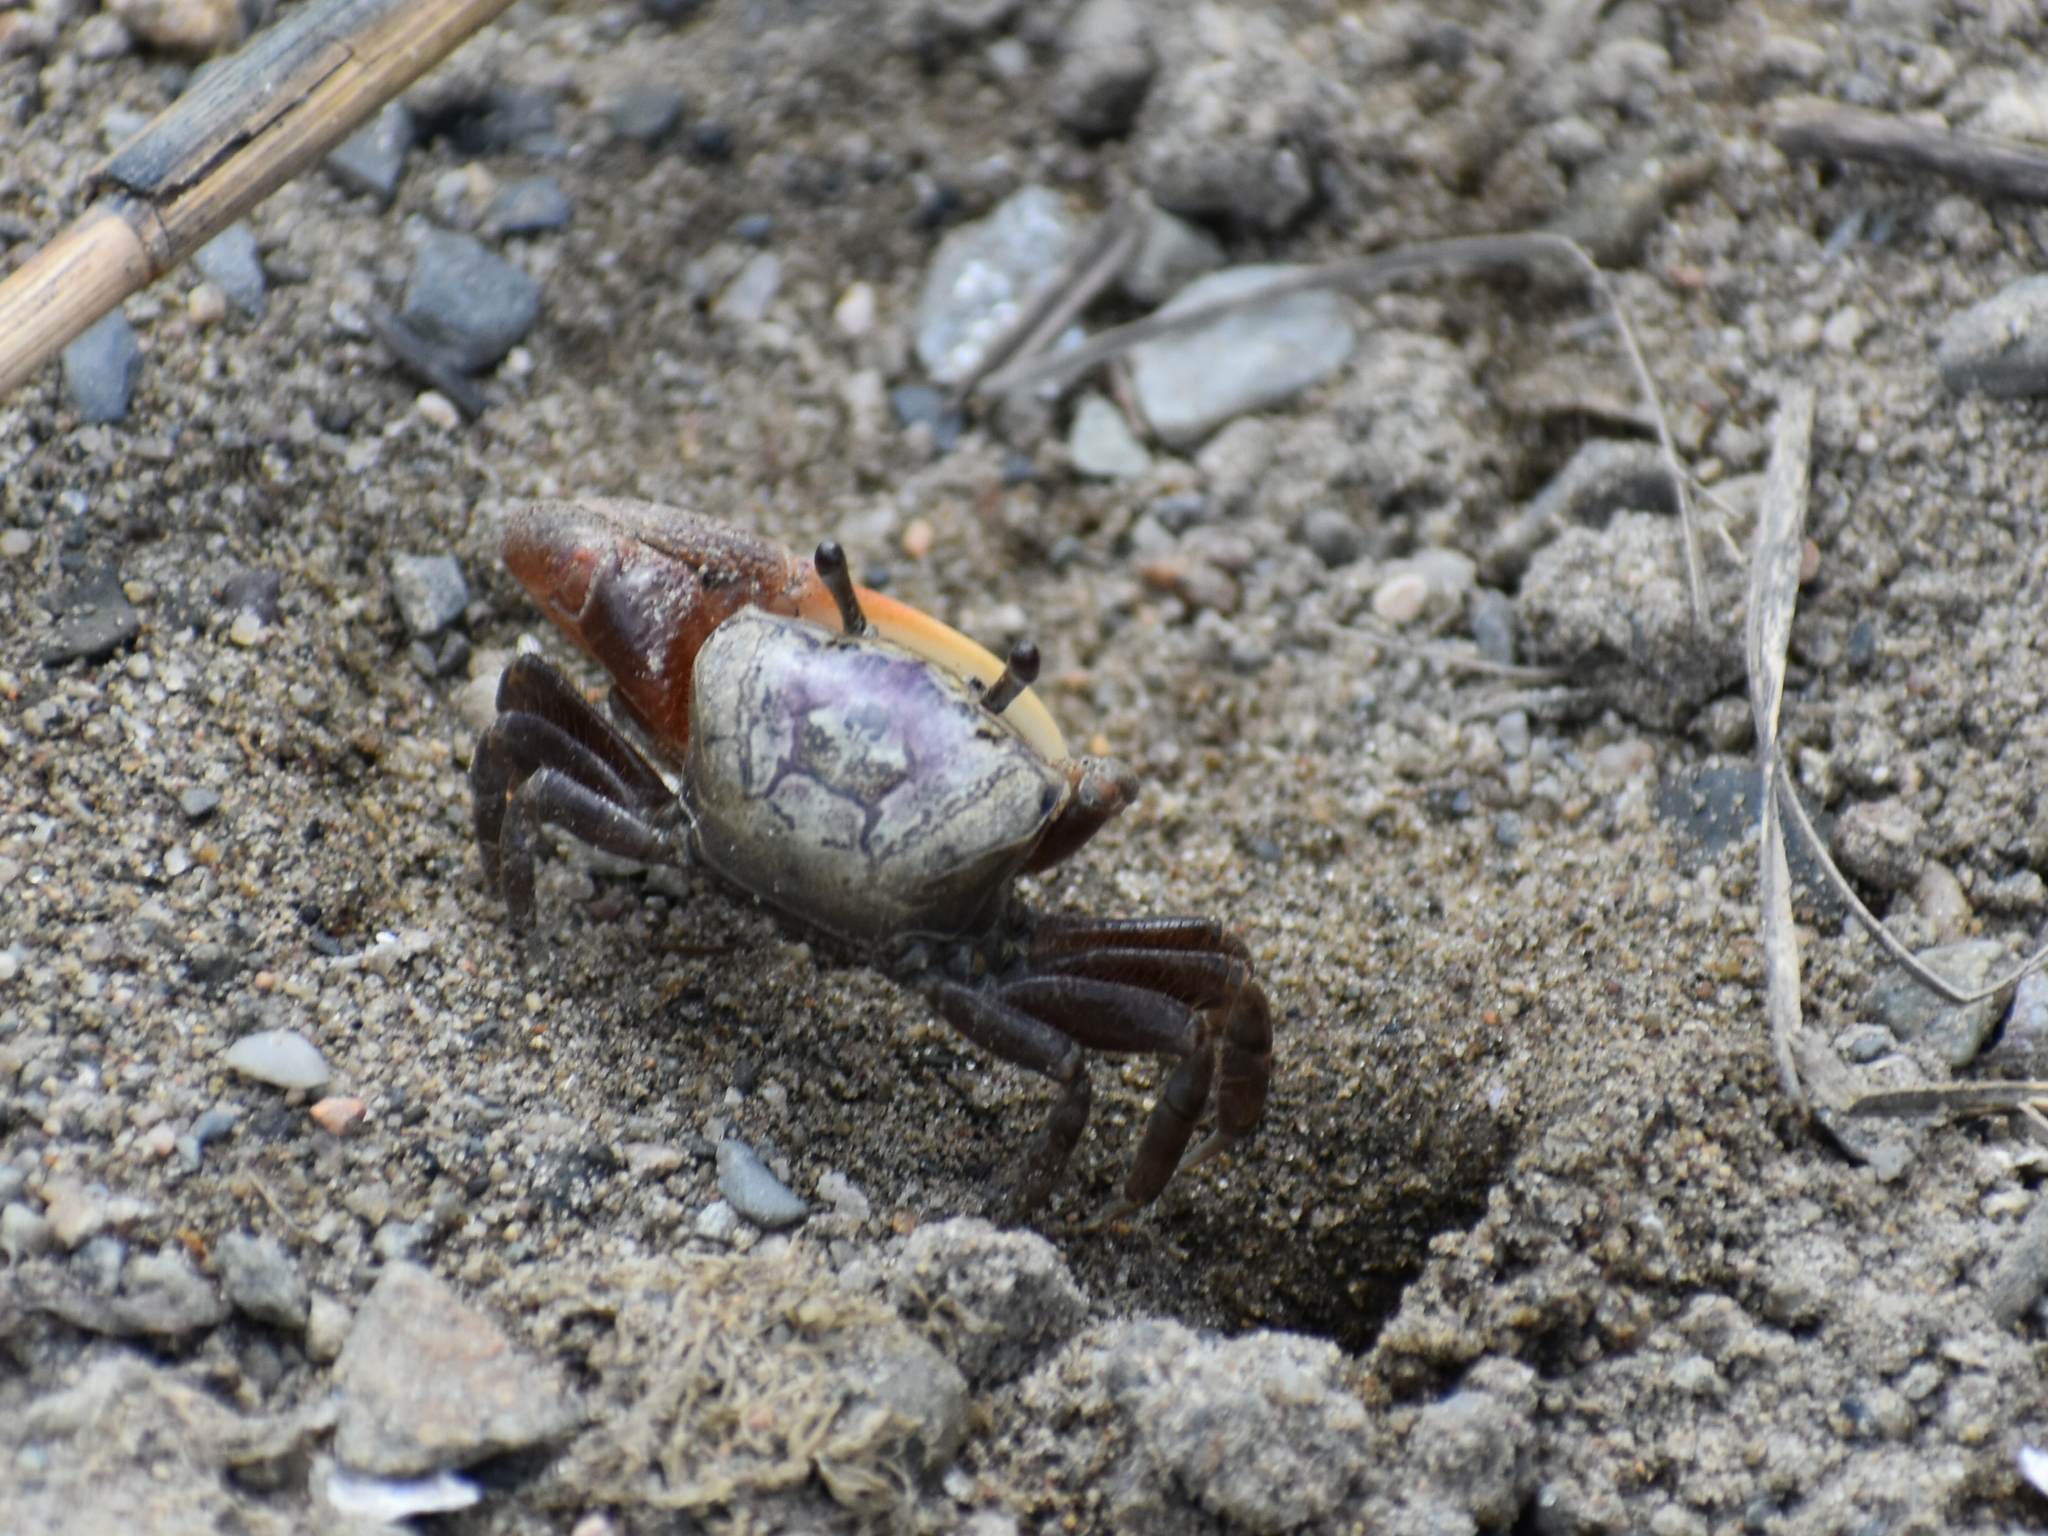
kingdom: Animalia
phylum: Arthropoda
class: Malacostraca
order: Decapoda
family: Ocypodidae
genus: Leptuca
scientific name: Leptuca pugilator
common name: Atlantic sand fiddler crab
